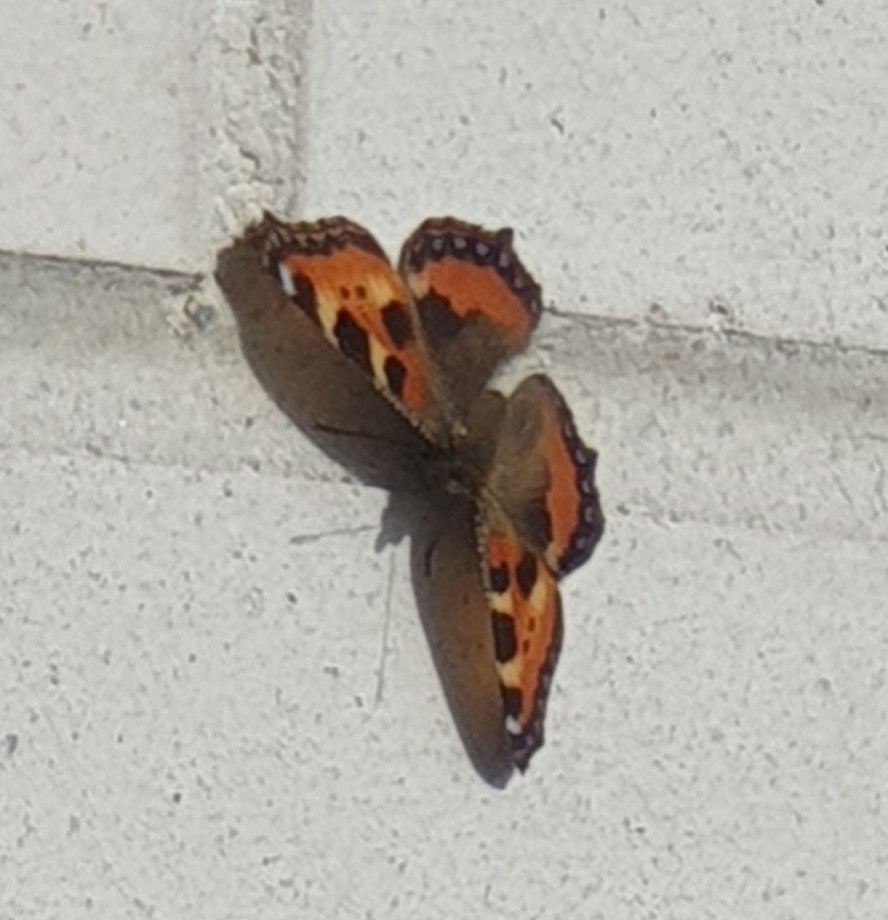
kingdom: Animalia
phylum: Arthropoda
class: Insecta
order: Lepidoptera
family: Nymphalidae
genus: Aglais
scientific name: Aglais urticae
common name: Small tortoiseshell
